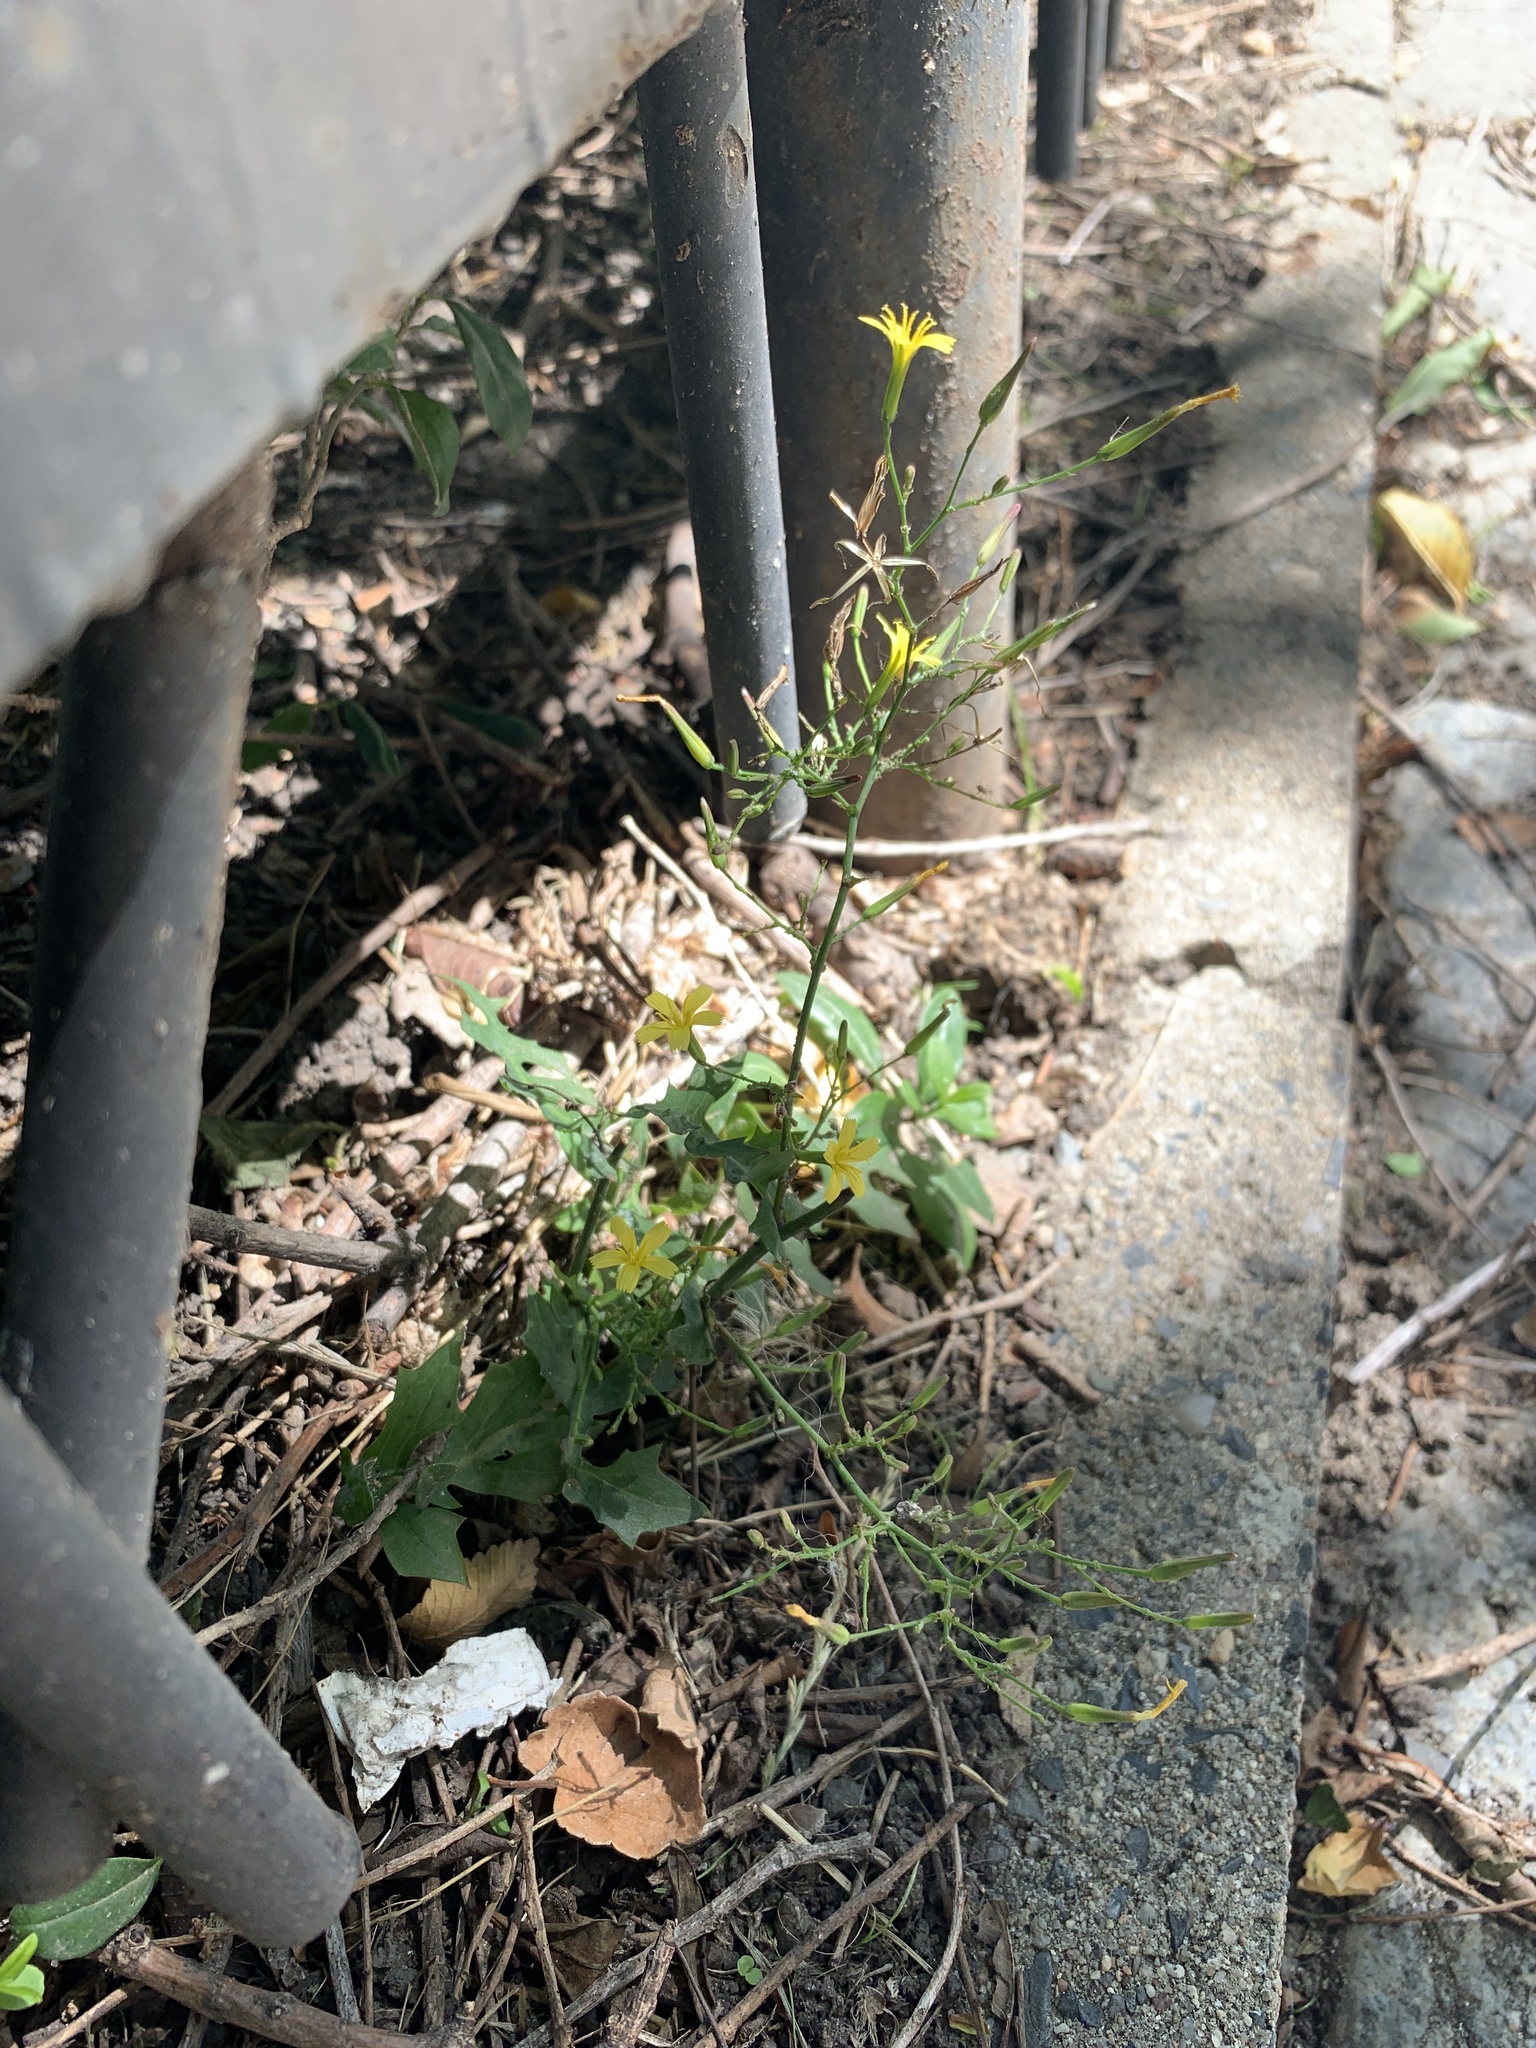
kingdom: Plantae
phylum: Tracheophyta
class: Magnoliopsida
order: Asterales
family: Asteraceae
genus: Mycelis
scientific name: Mycelis muralis
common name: Wall lettuce
